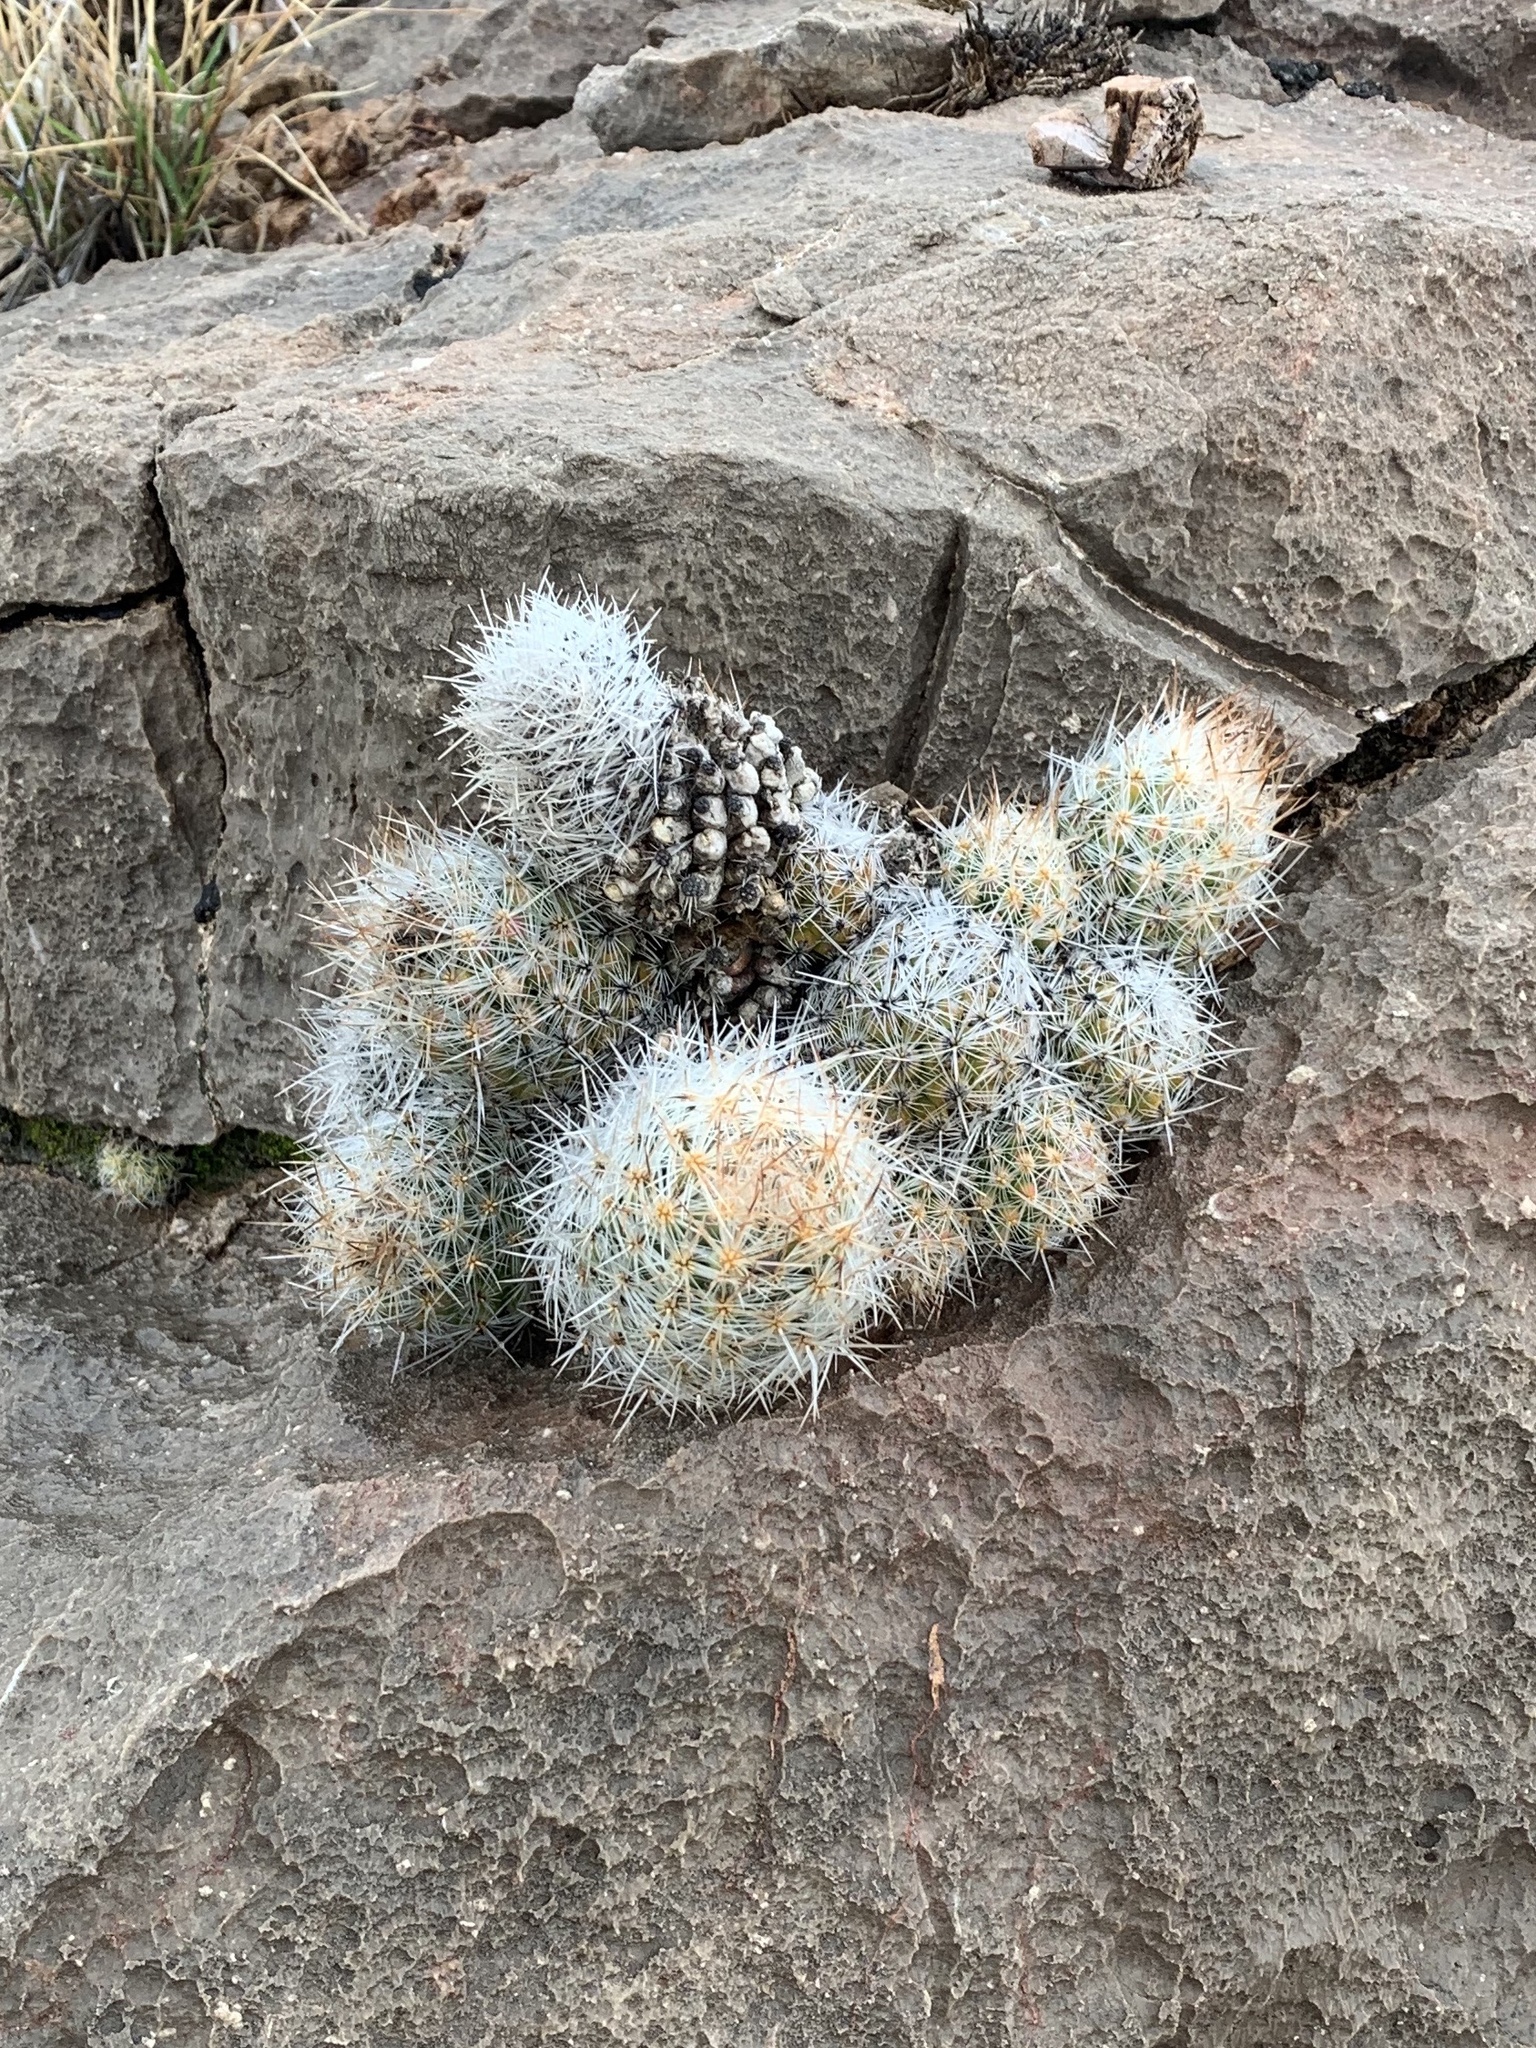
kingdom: Plantae
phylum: Tracheophyta
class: Magnoliopsida
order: Caryophyllales
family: Cactaceae
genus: Pelecyphora
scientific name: Pelecyphora tuberculosa
